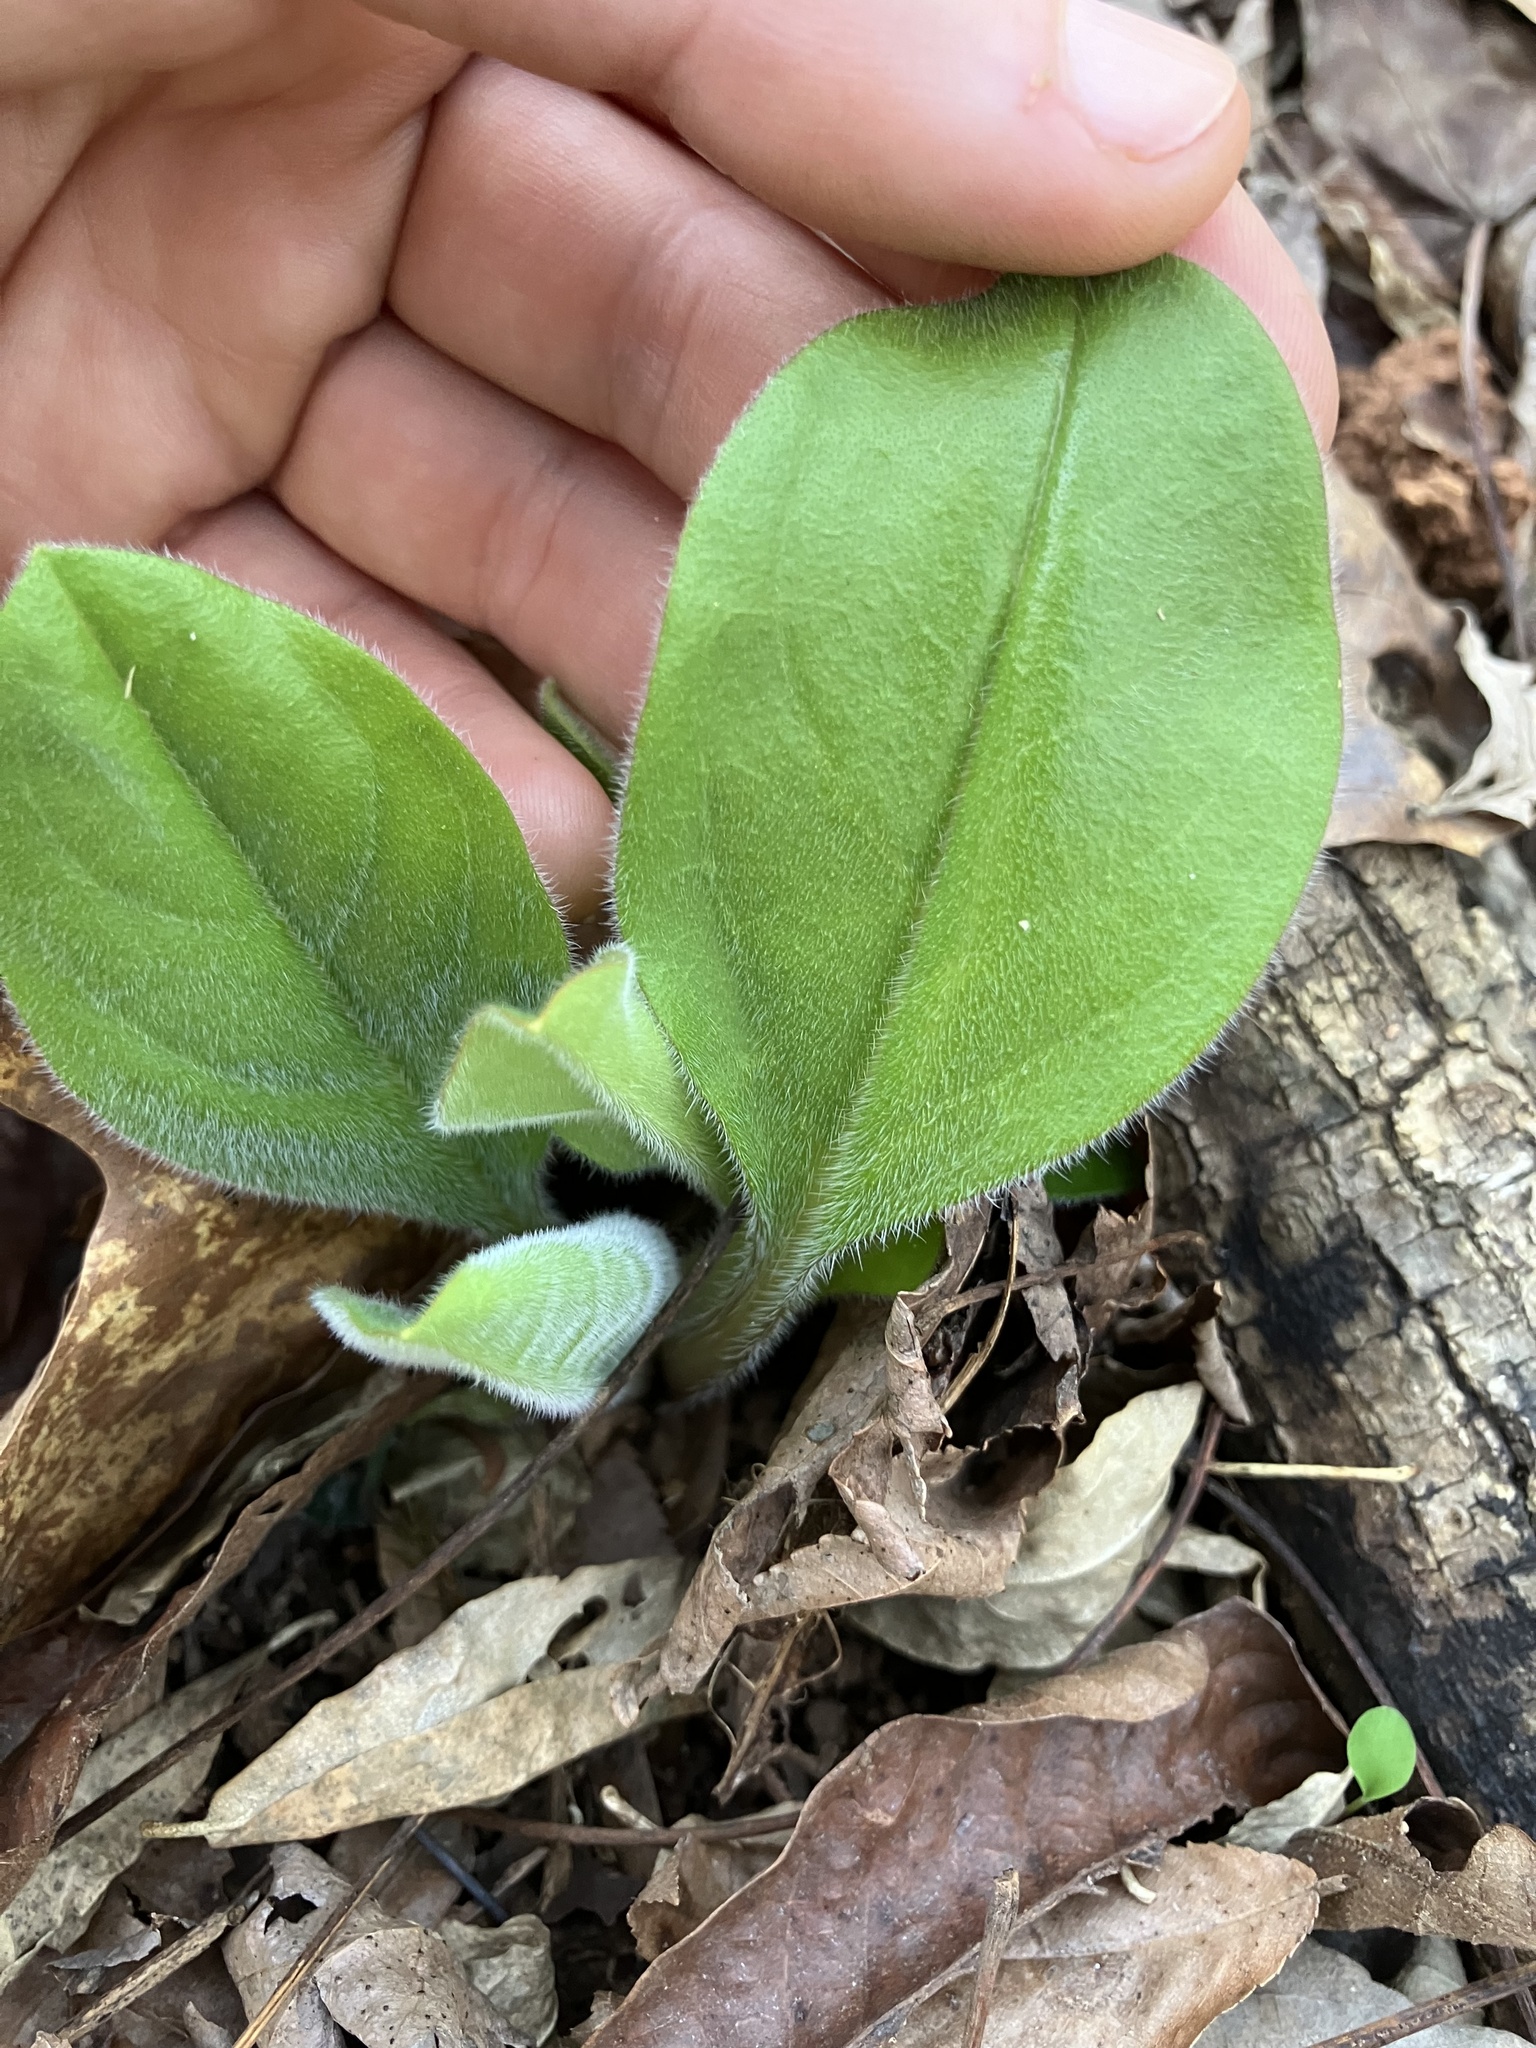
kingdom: Plantae
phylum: Tracheophyta
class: Magnoliopsida
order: Boraginales
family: Boraginaceae
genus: Andersonglossum
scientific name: Andersonglossum virginianum
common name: Wild comfrey
